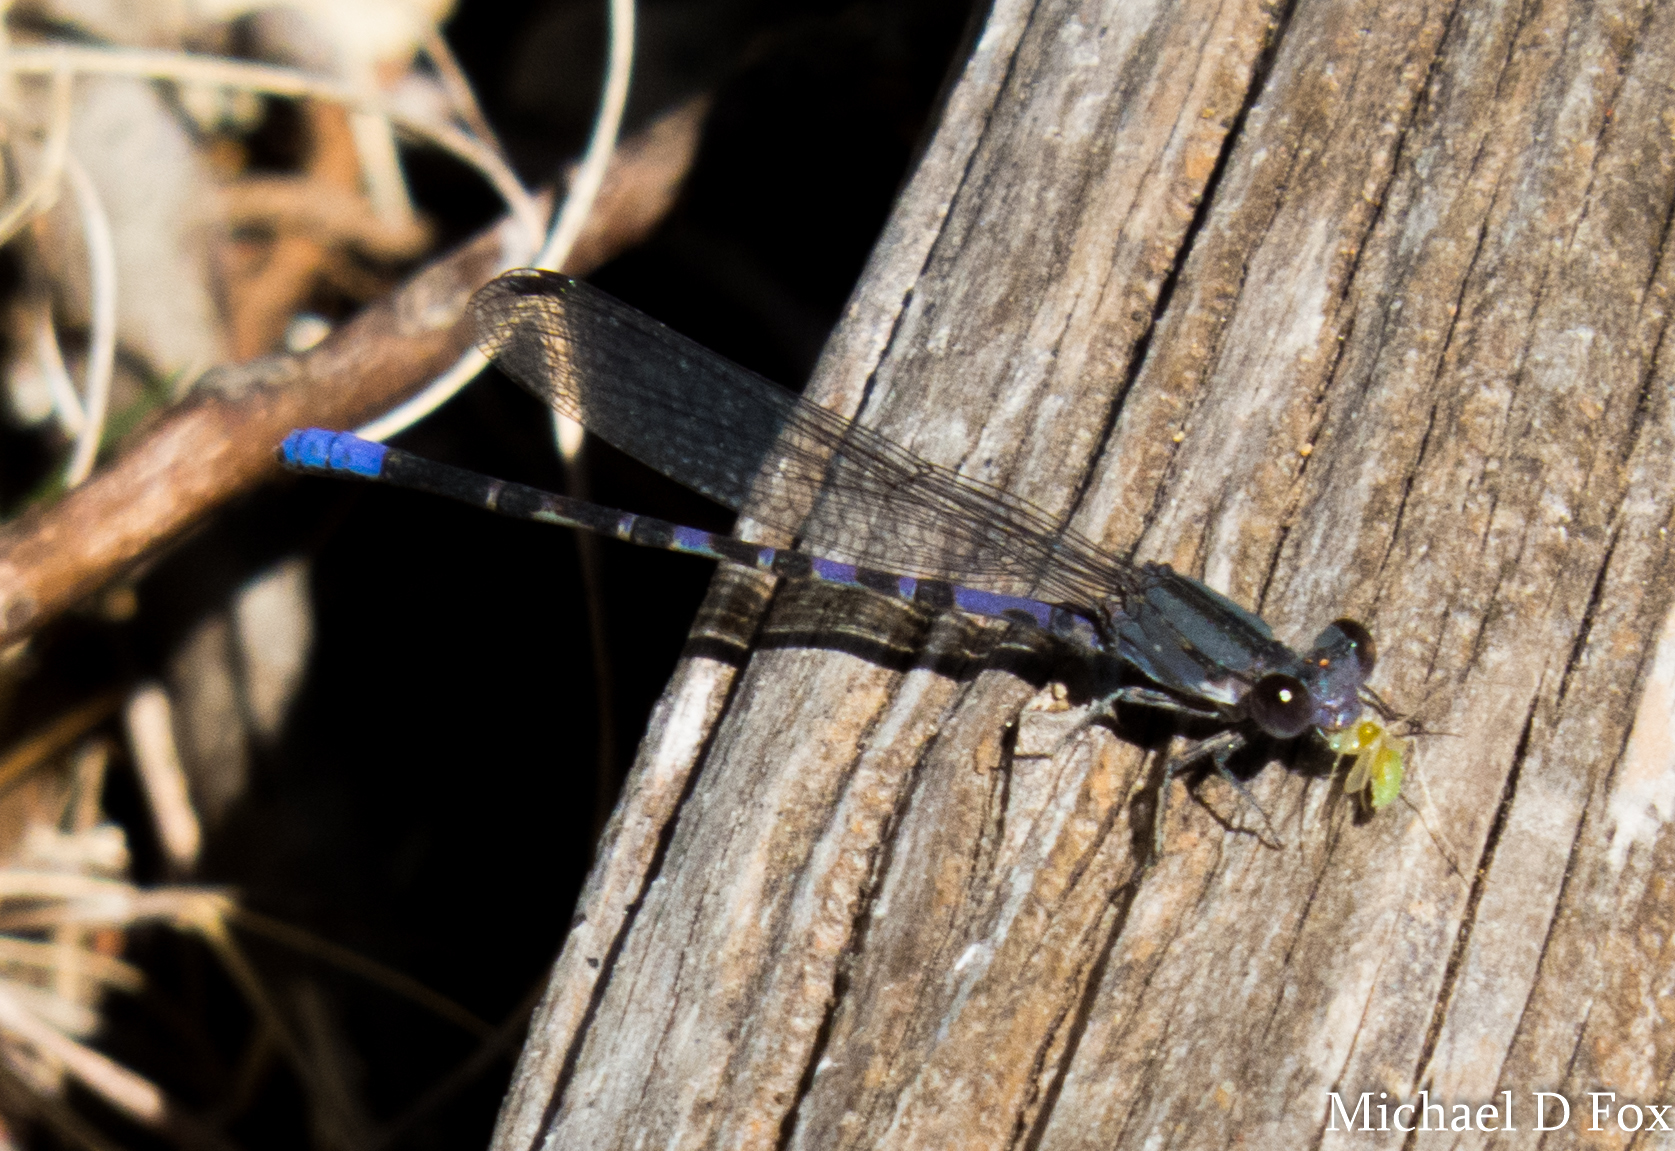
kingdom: Animalia
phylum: Arthropoda
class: Insecta
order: Odonata
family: Coenagrionidae
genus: Argia
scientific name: Argia immunda
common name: Kiowa dancer
